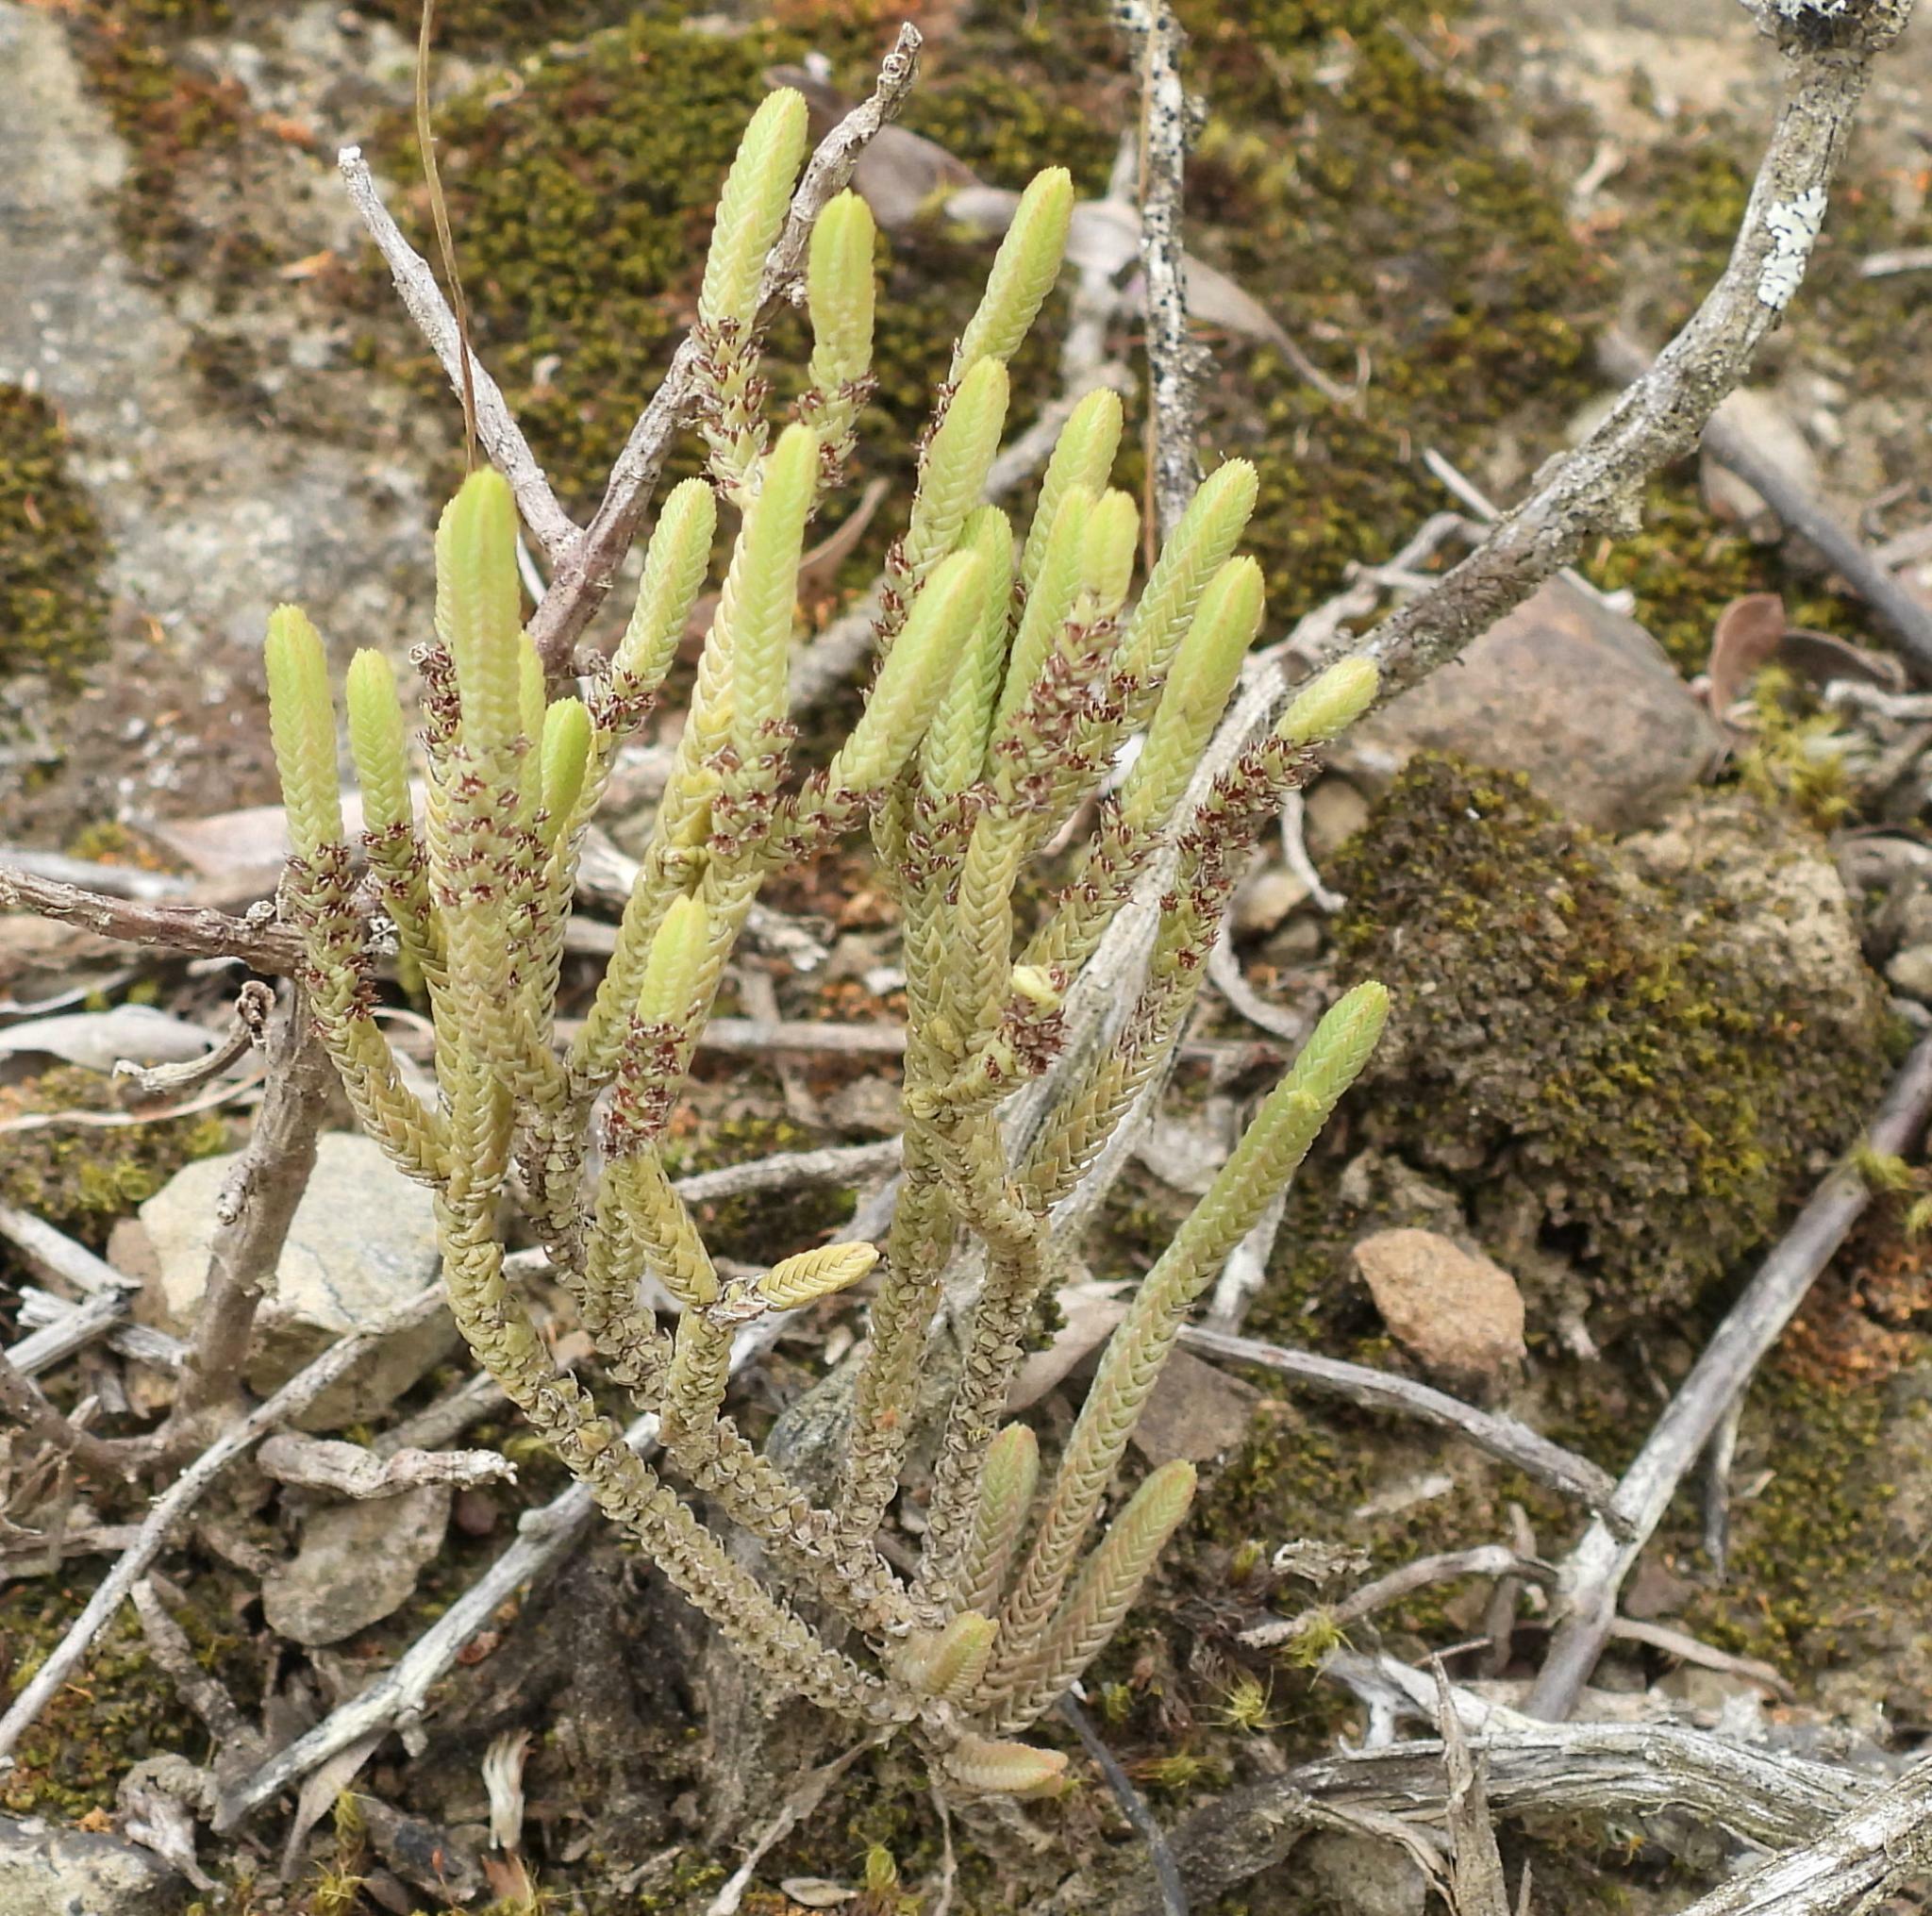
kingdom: Plantae
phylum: Tracheophyta
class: Magnoliopsida
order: Saxifragales
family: Crassulaceae
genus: Crassula
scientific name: Crassula muscosa
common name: Toy-cypress
